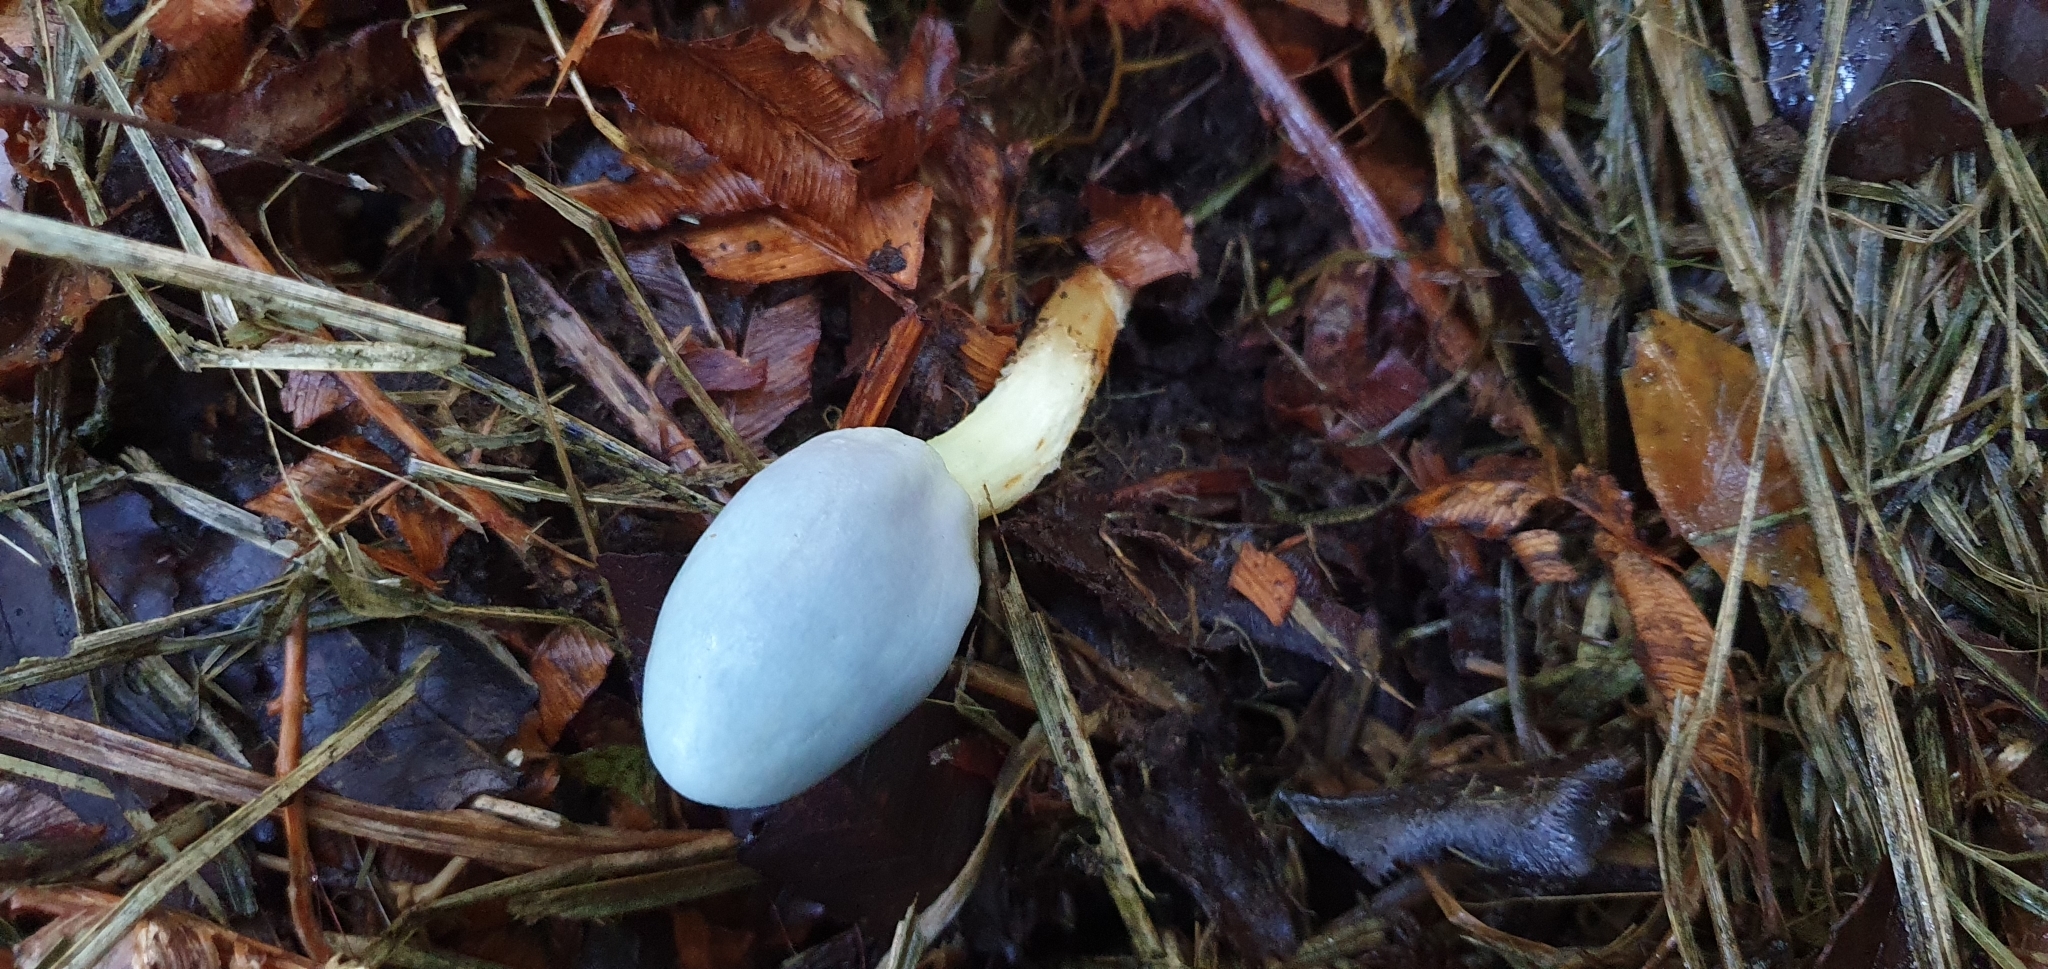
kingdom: Fungi
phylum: Basidiomycota
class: Agaricomycetes
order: Agaricales
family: Agaricaceae
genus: Clavogaster
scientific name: Clavogaster virescens
